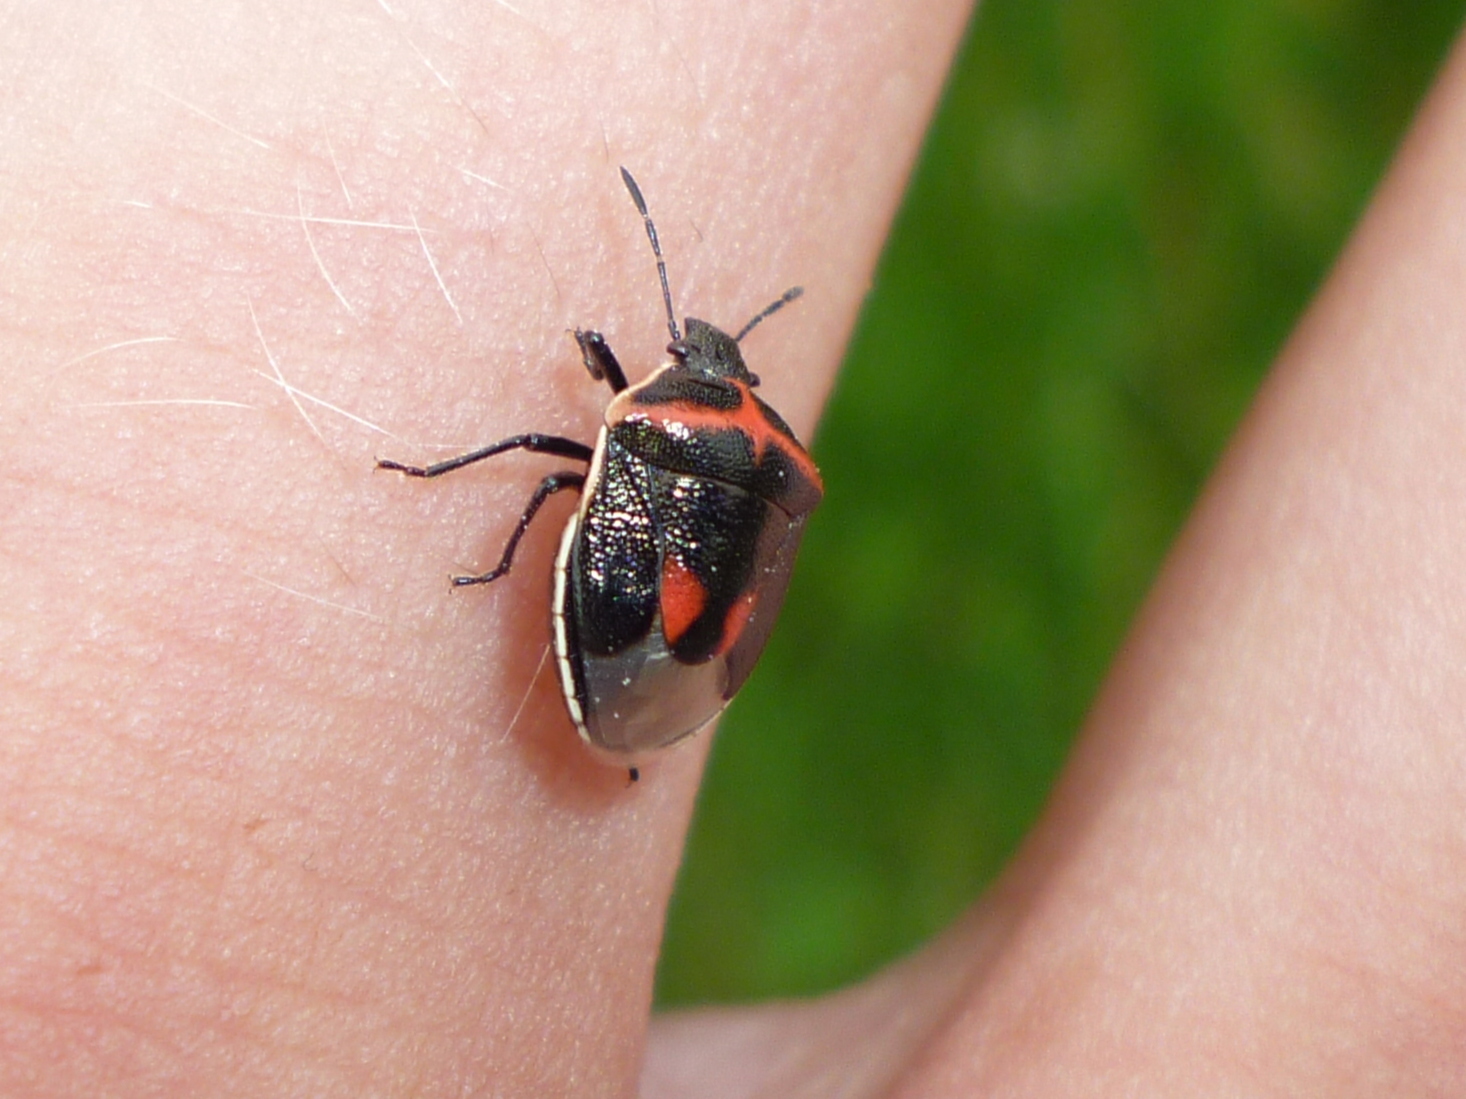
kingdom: Animalia
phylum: Arthropoda
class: Insecta
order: Hemiptera
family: Pentatomidae
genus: Cosmopepla
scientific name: Cosmopepla lintneriana
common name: Twice-stabbed stink bug
